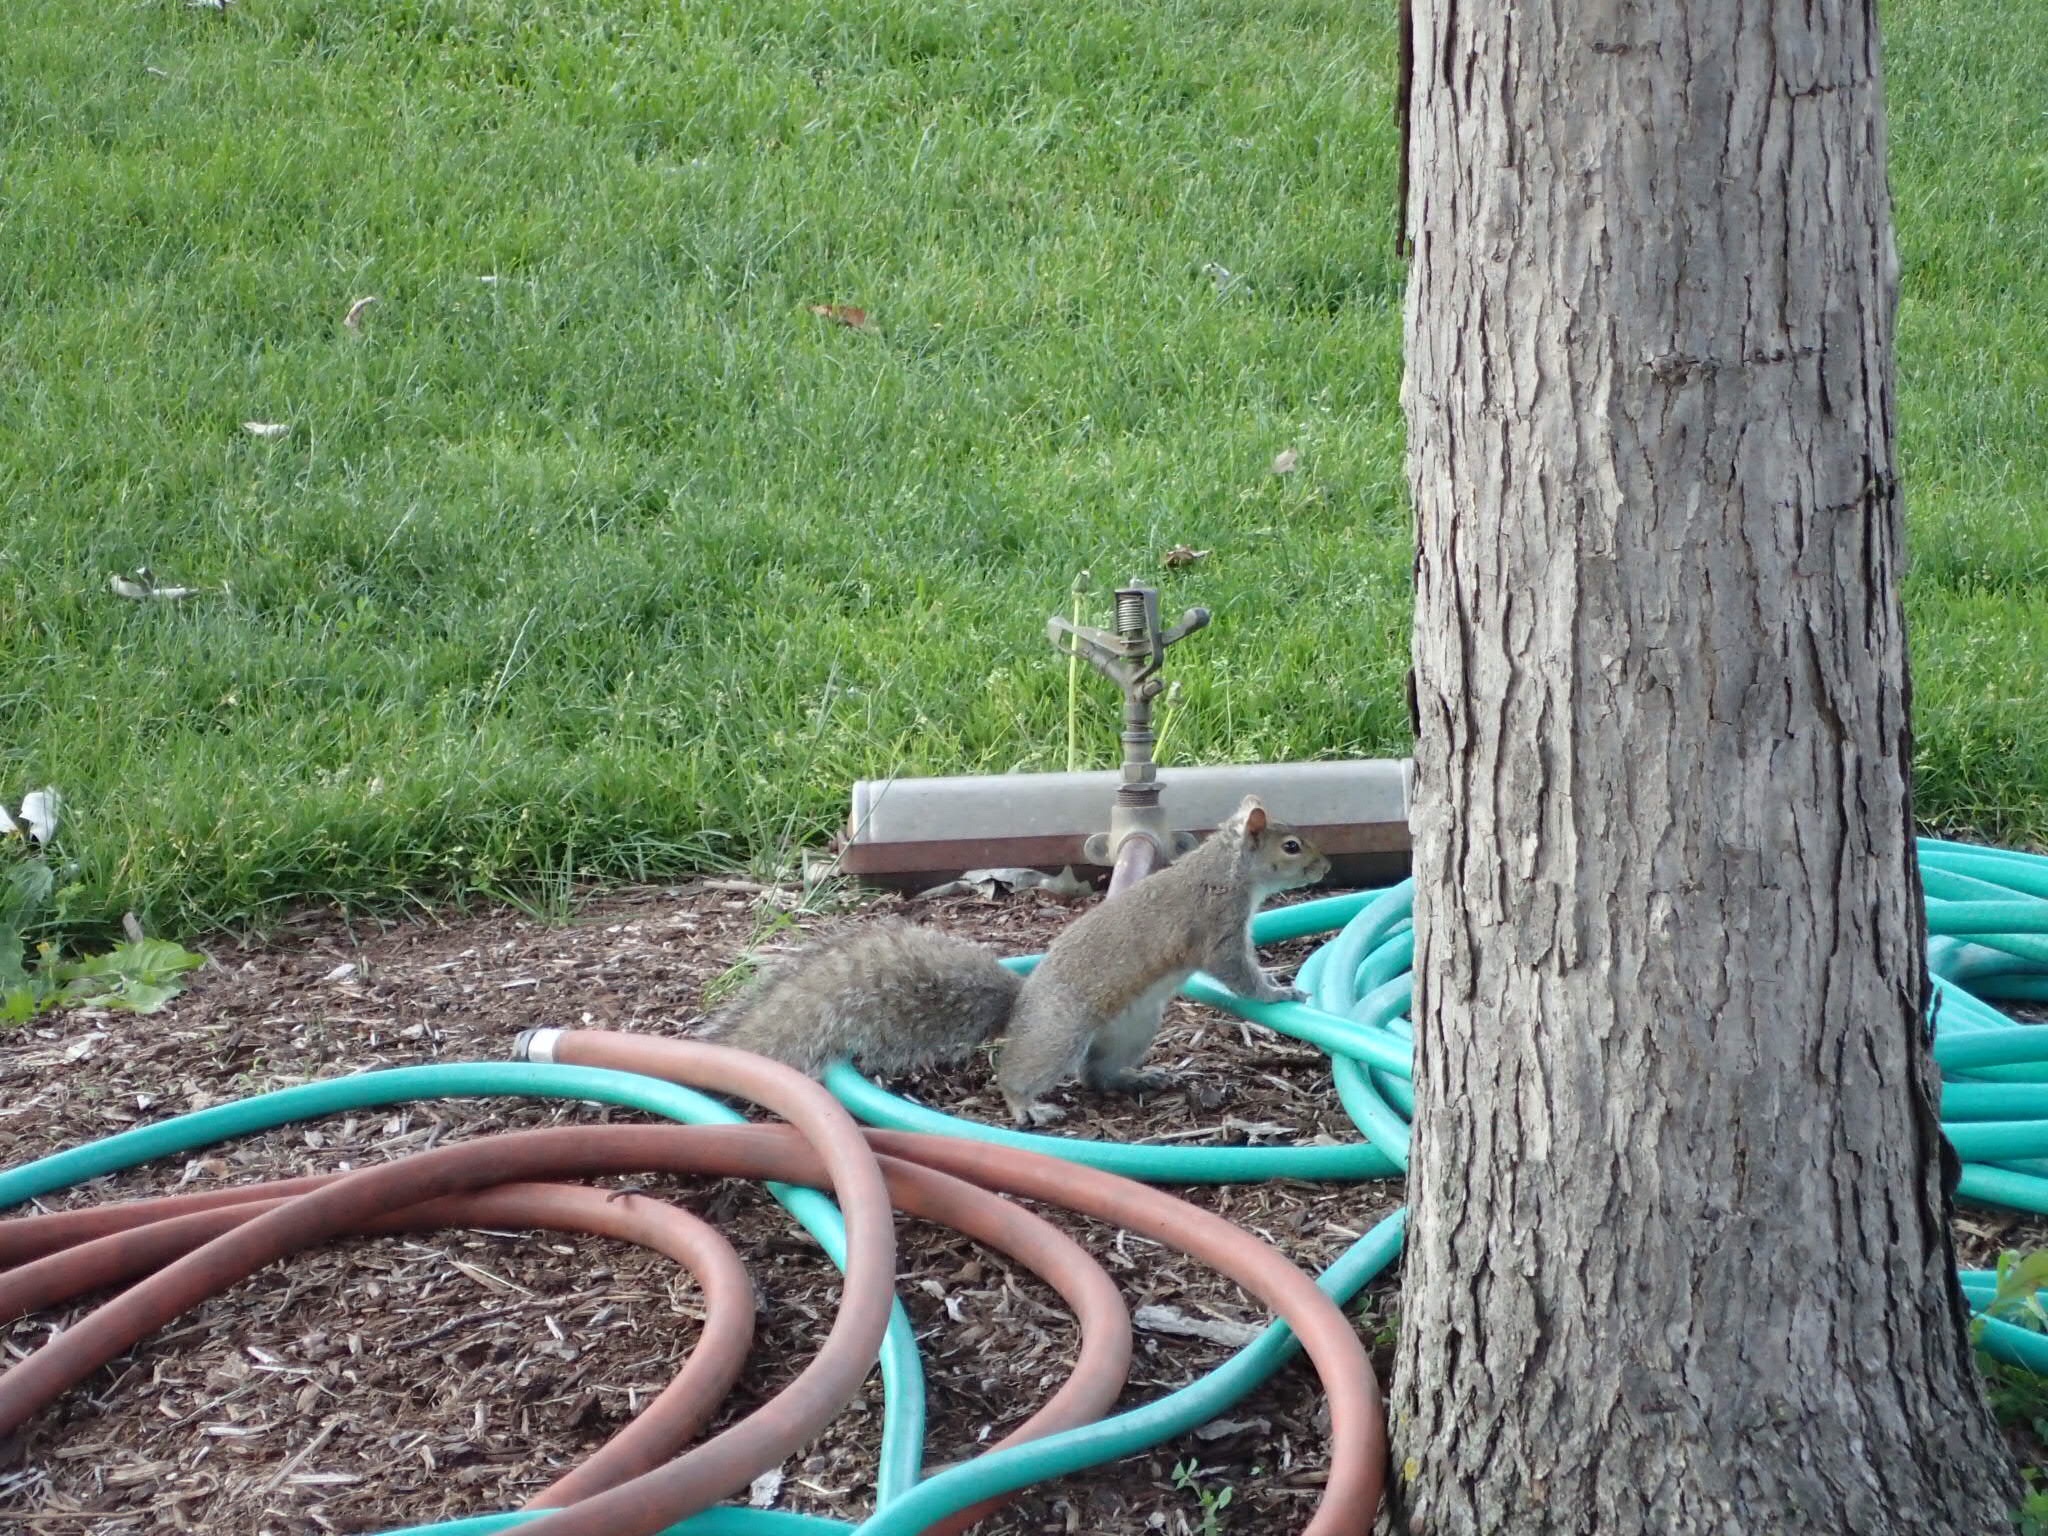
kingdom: Animalia
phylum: Chordata
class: Mammalia
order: Rodentia
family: Sciuridae
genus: Sciurus
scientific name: Sciurus carolinensis
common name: Eastern gray squirrel
